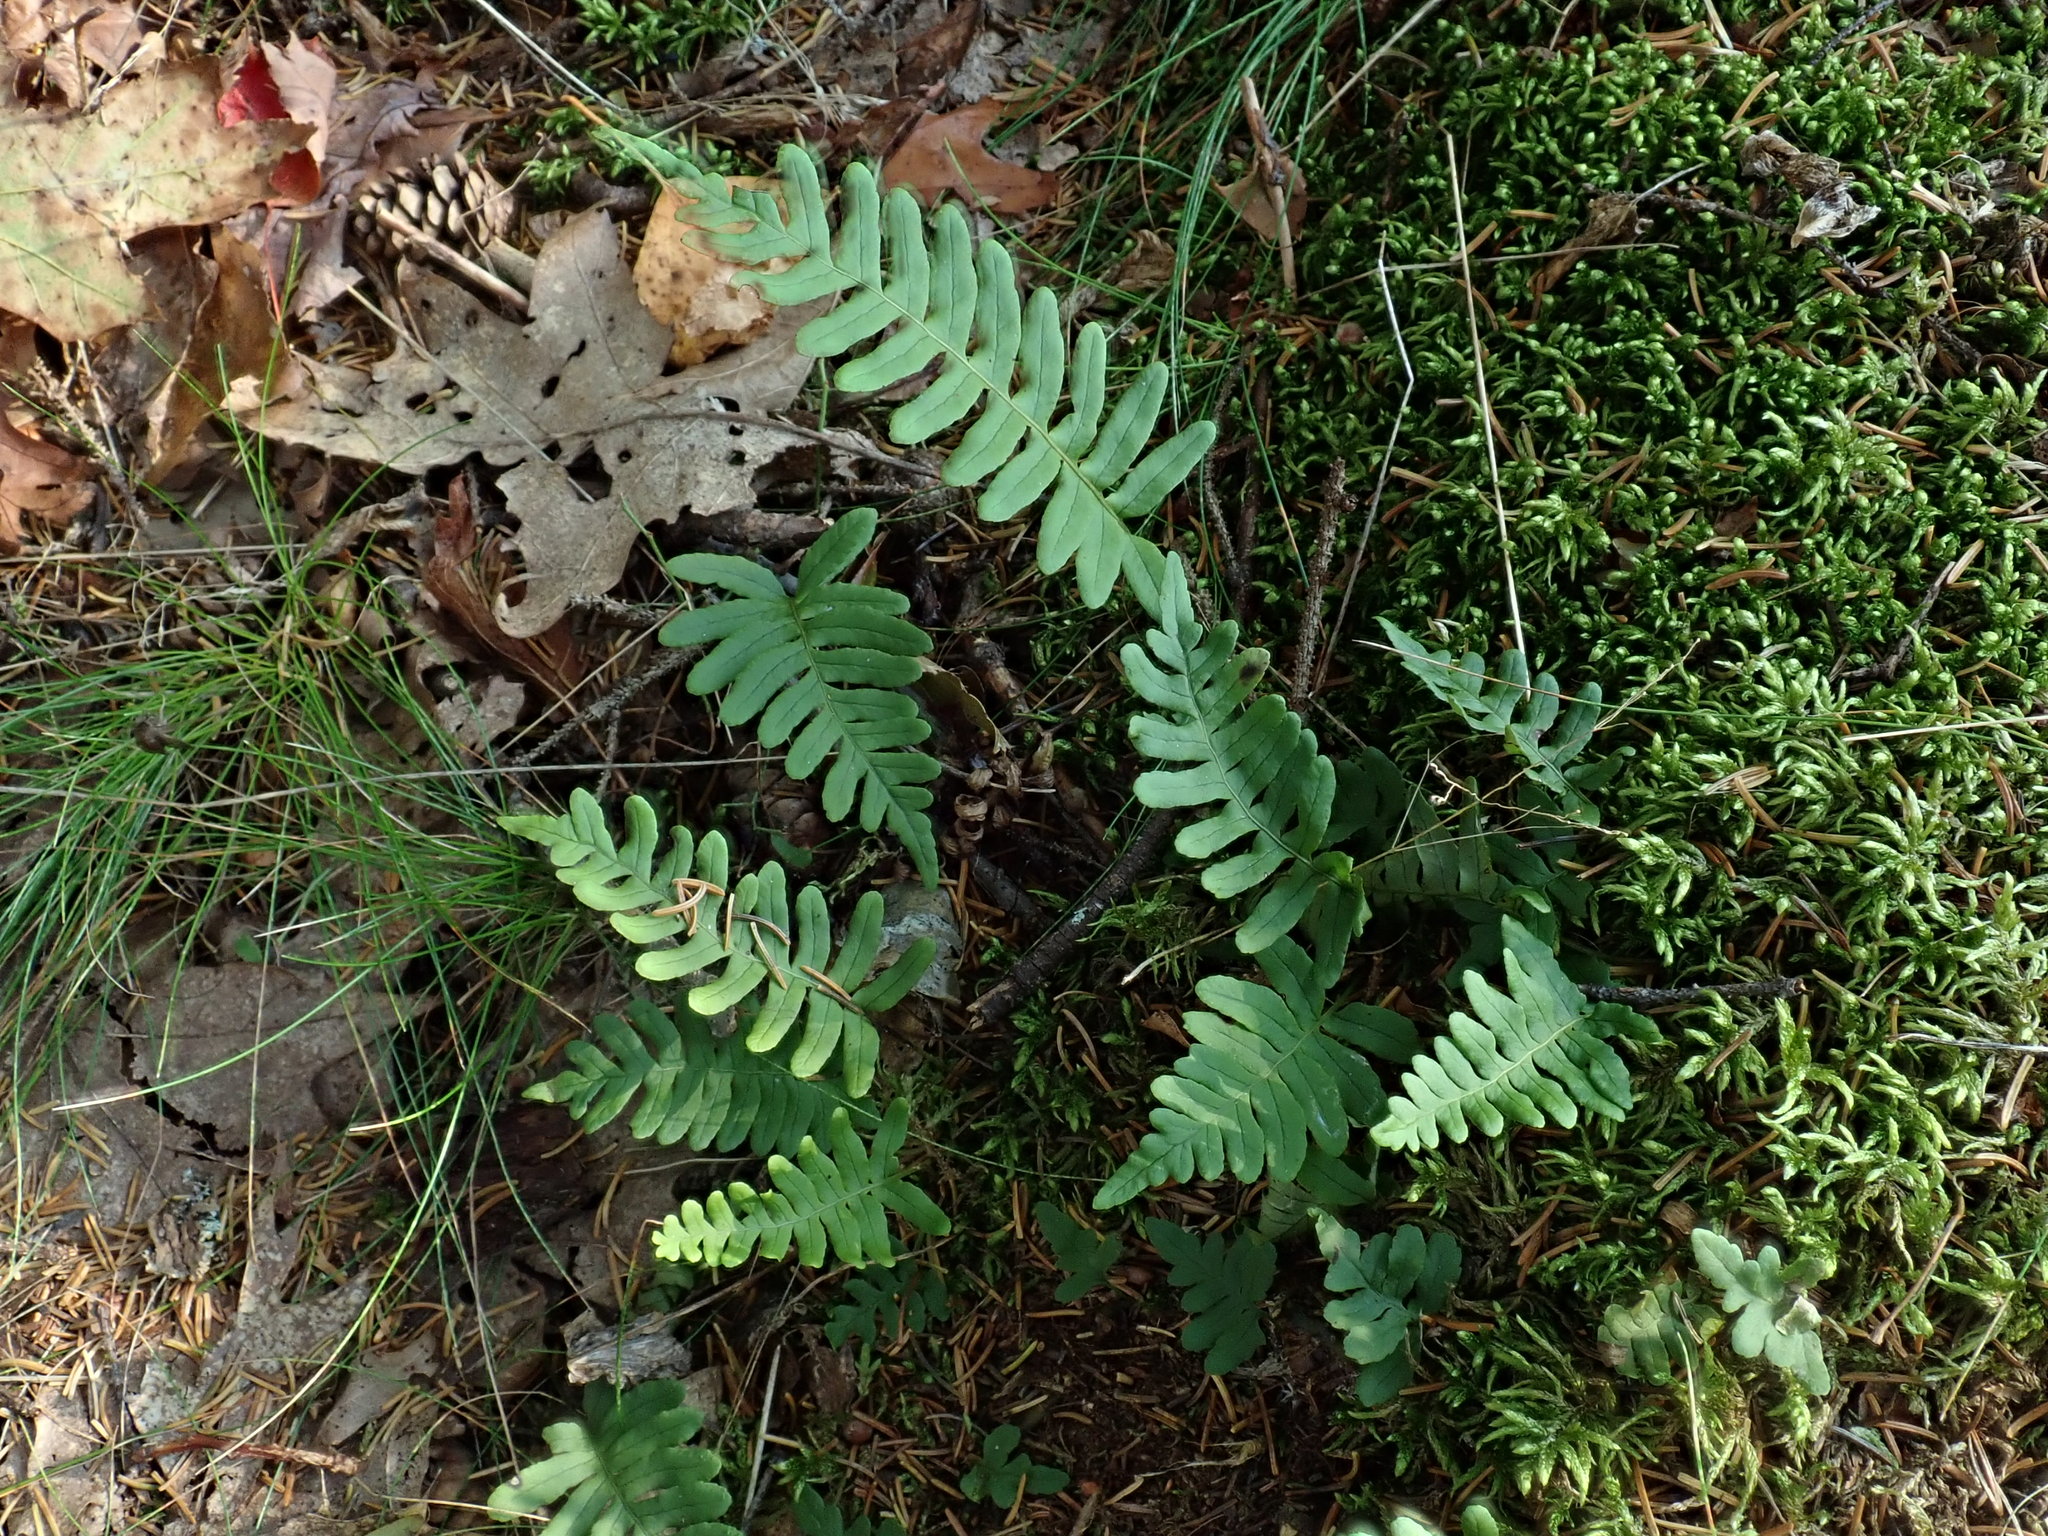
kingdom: Plantae
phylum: Tracheophyta
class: Polypodiopsida
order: Polypodiales
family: Polypodiaceae
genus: Polypodium
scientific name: Polypodium
